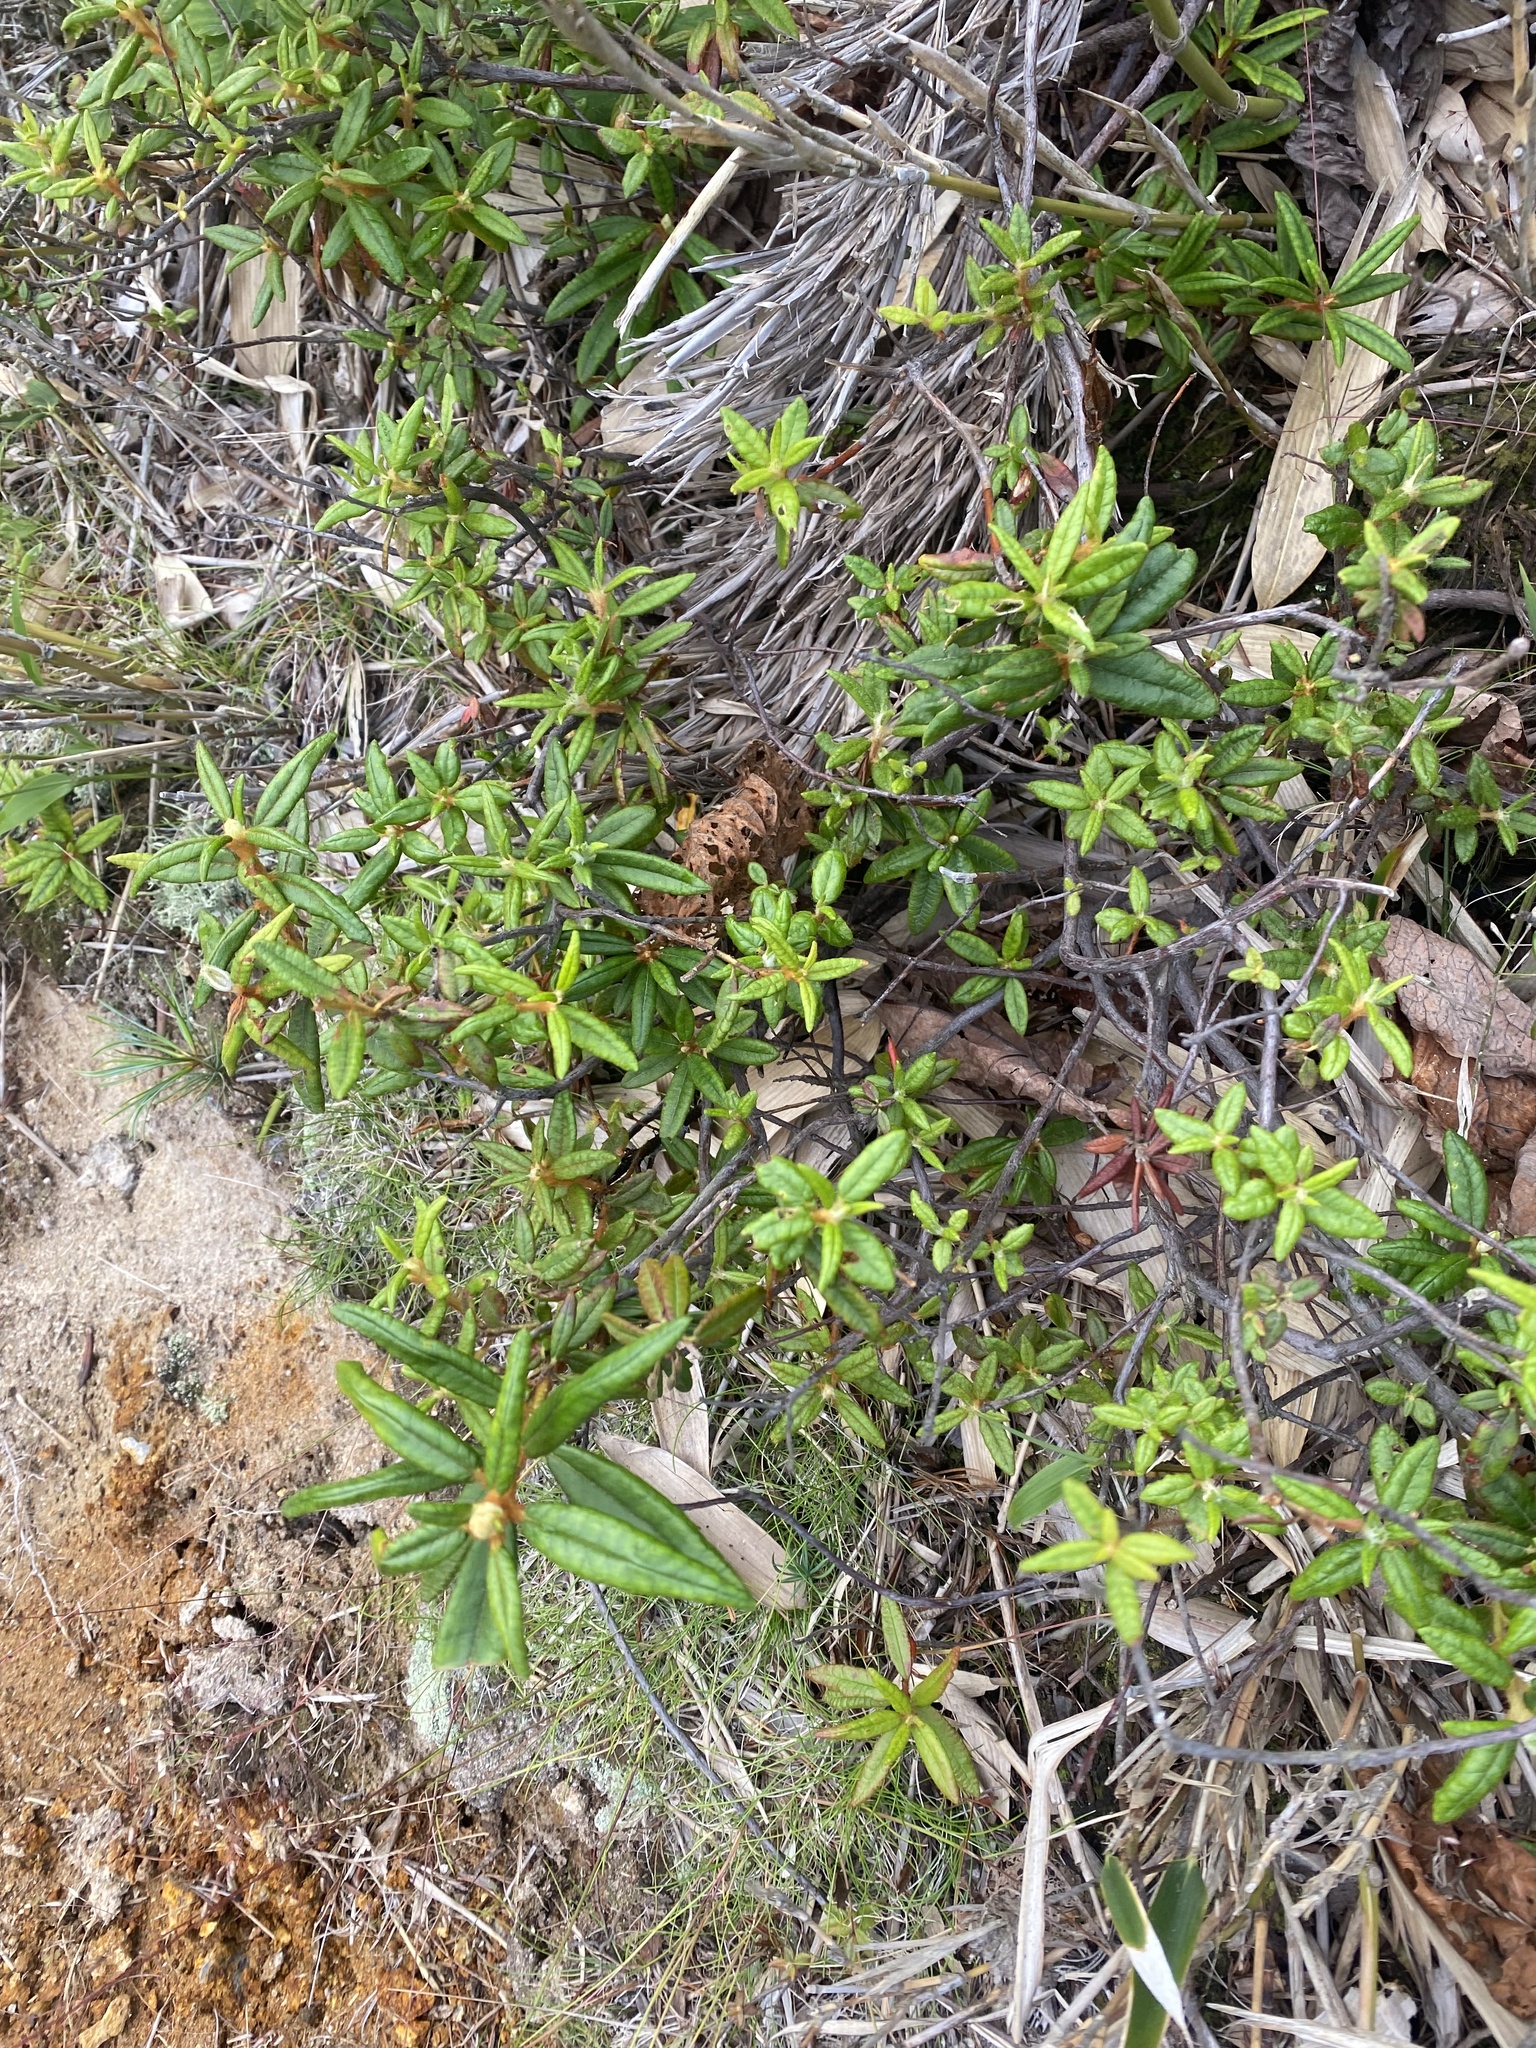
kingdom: Plantae
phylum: Tracheophyta
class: Magnoliopsida
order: Ericales
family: Ericaceae
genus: Rhododendron
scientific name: Rhododendron tomentosum
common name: Marsh labrador tea
